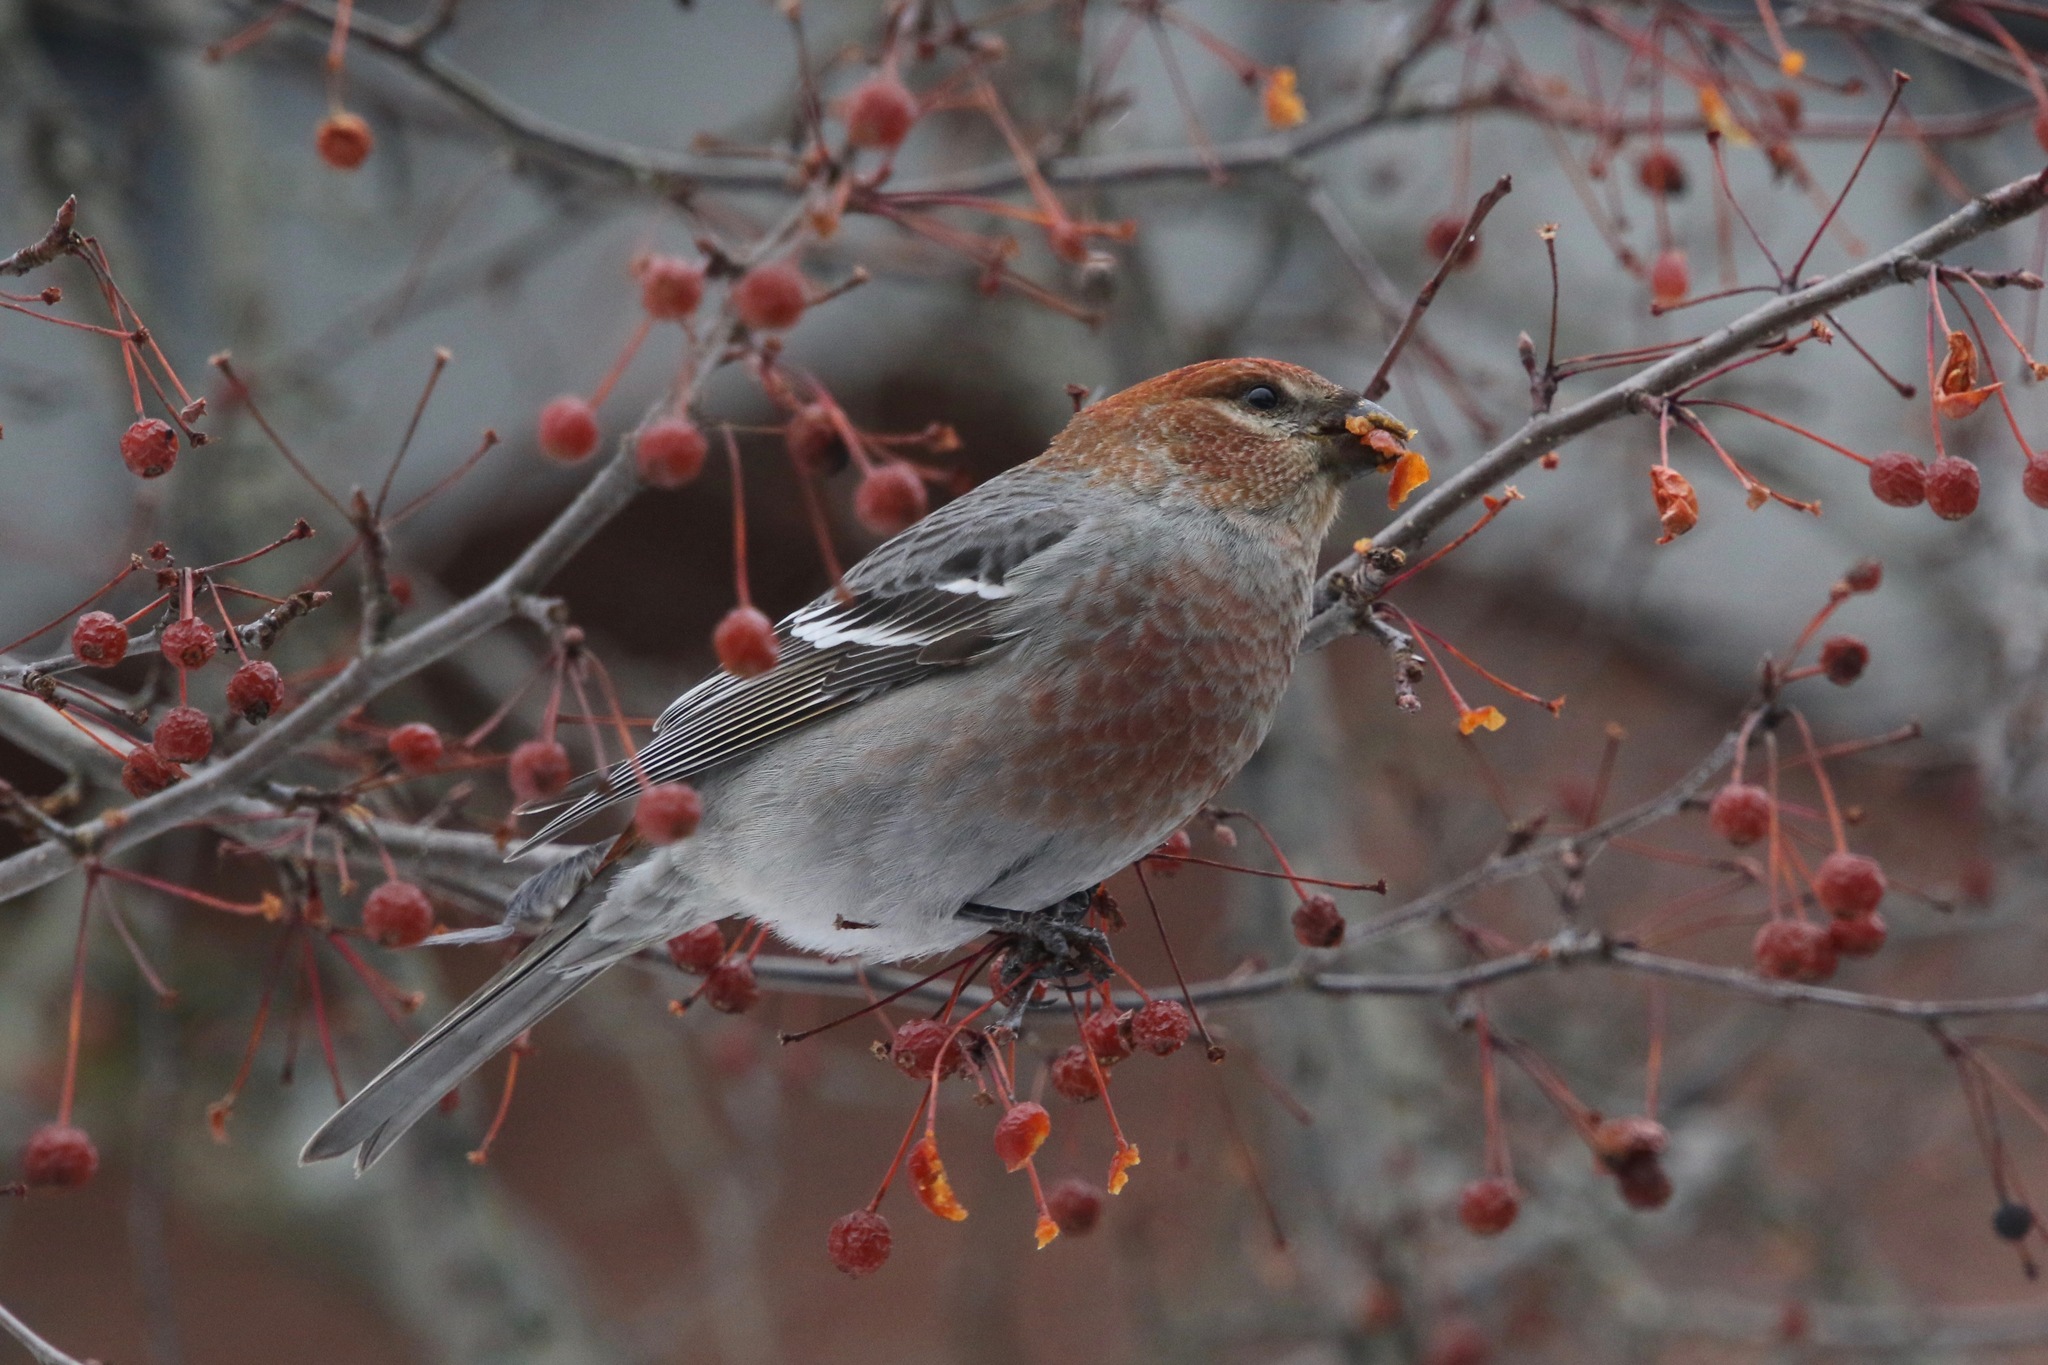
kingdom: Animalia
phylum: Chordata
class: Aves
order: Passeriformes
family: Fringillidae
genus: Pinicola
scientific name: Pinicola enucleator
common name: Pine grosbeak
